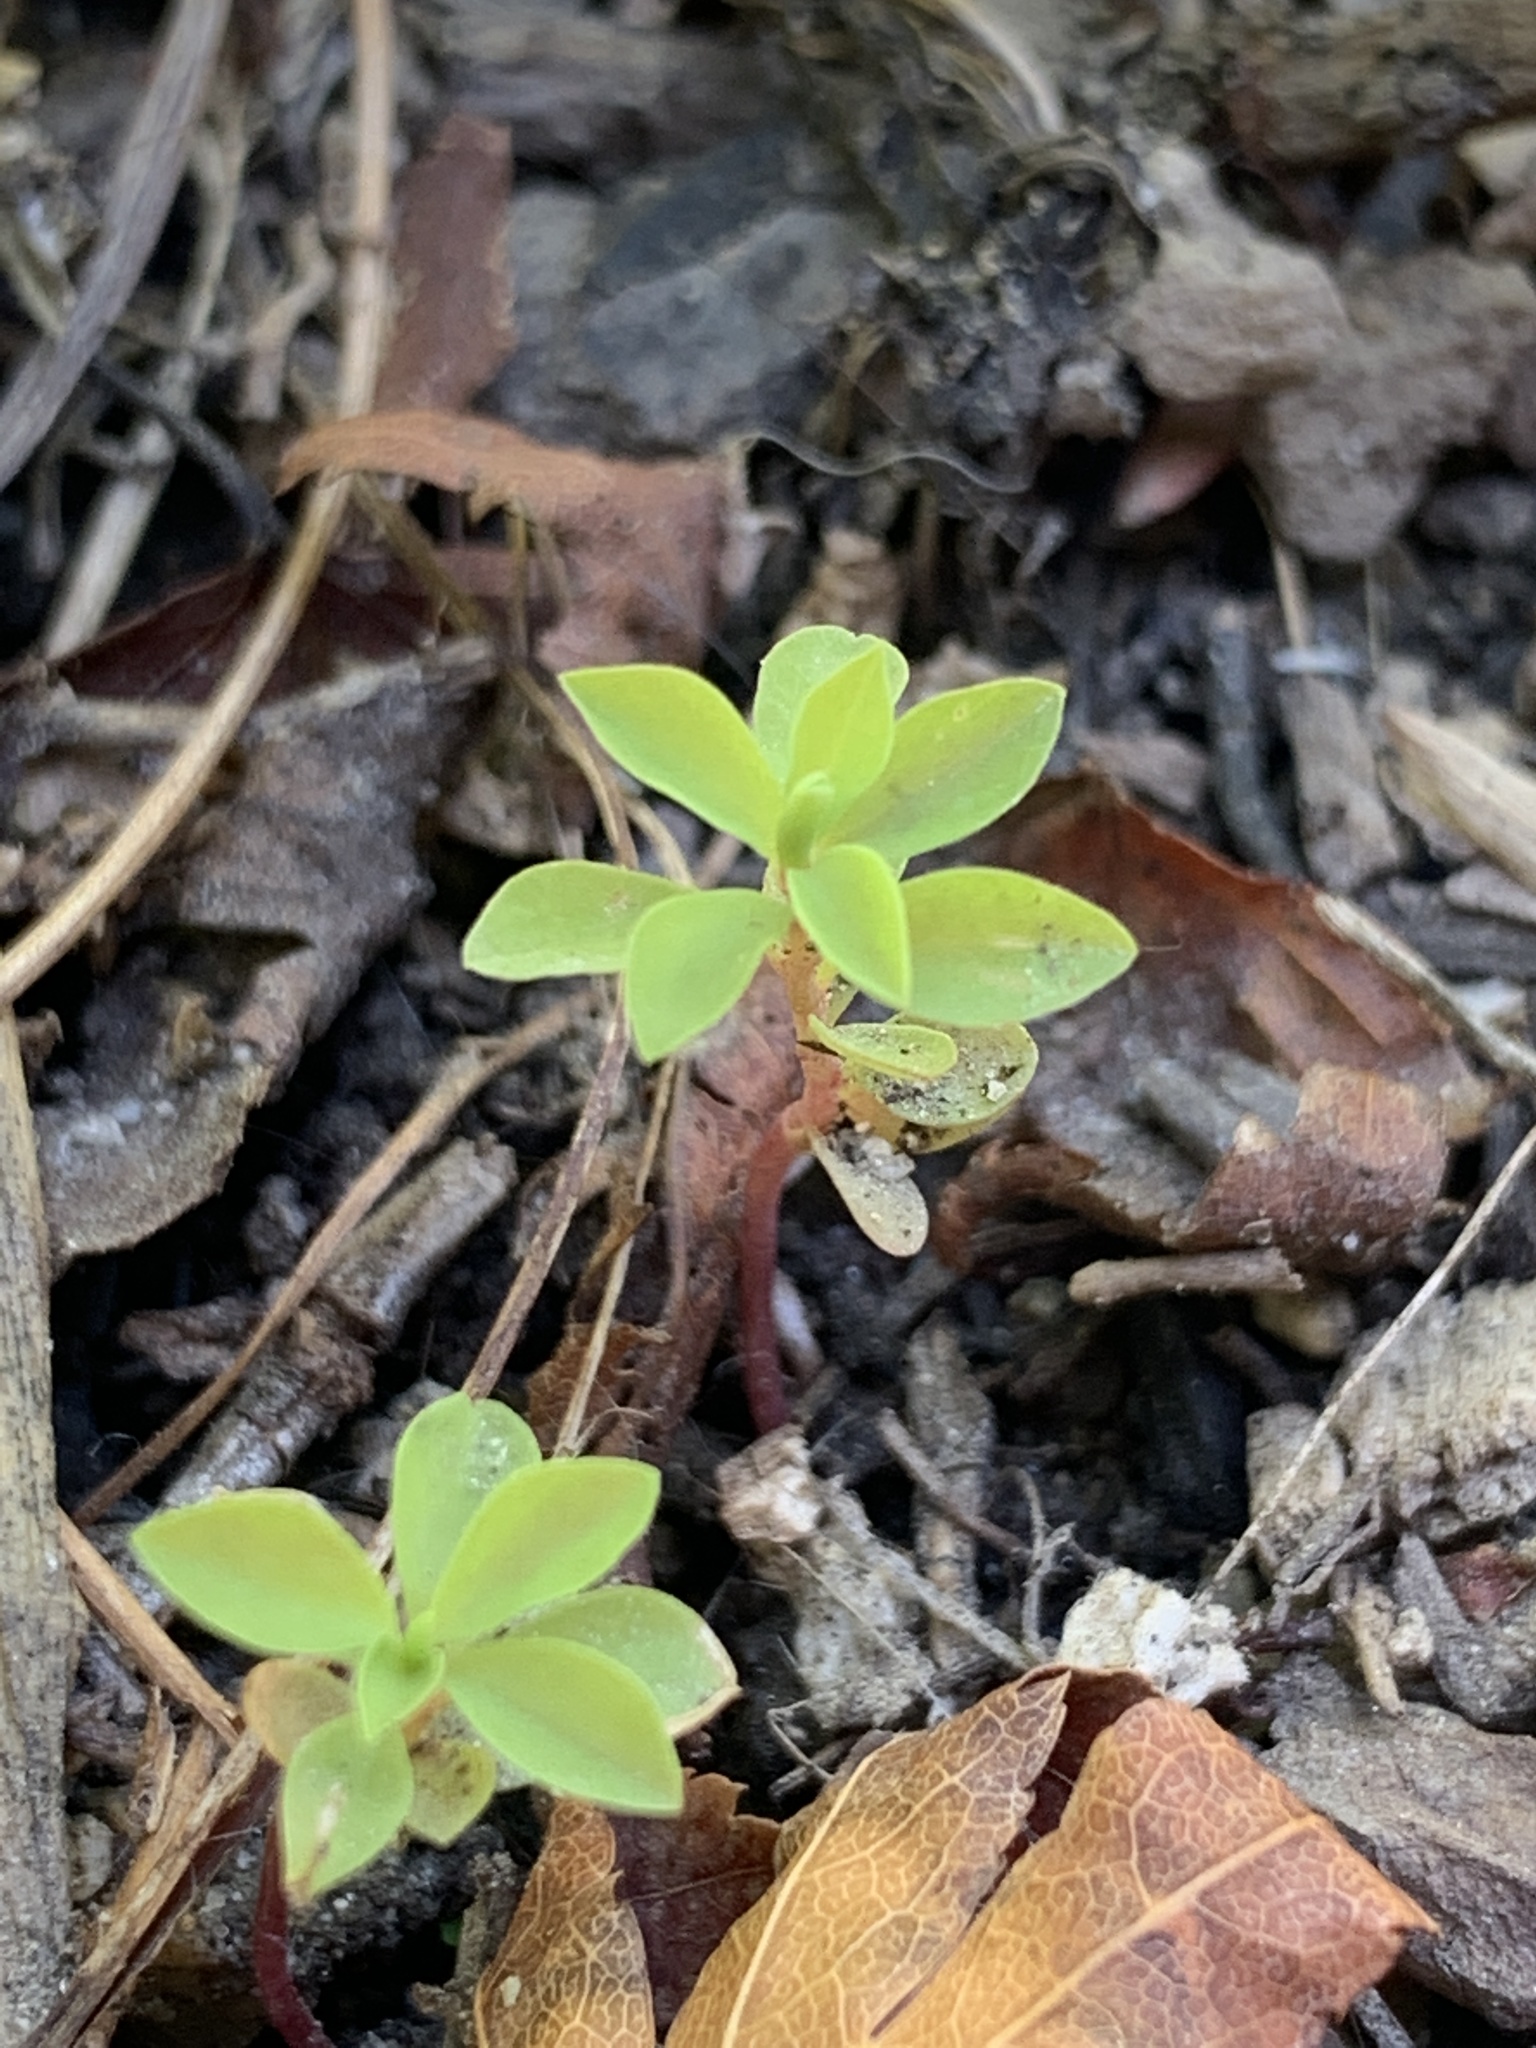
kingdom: Plantae
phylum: Tracheophyta
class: Magnoliopsida
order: Malpighiales
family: Euphorbiaceae
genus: Euphorbia
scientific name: Euphorbia peplus
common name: Petty spurge
